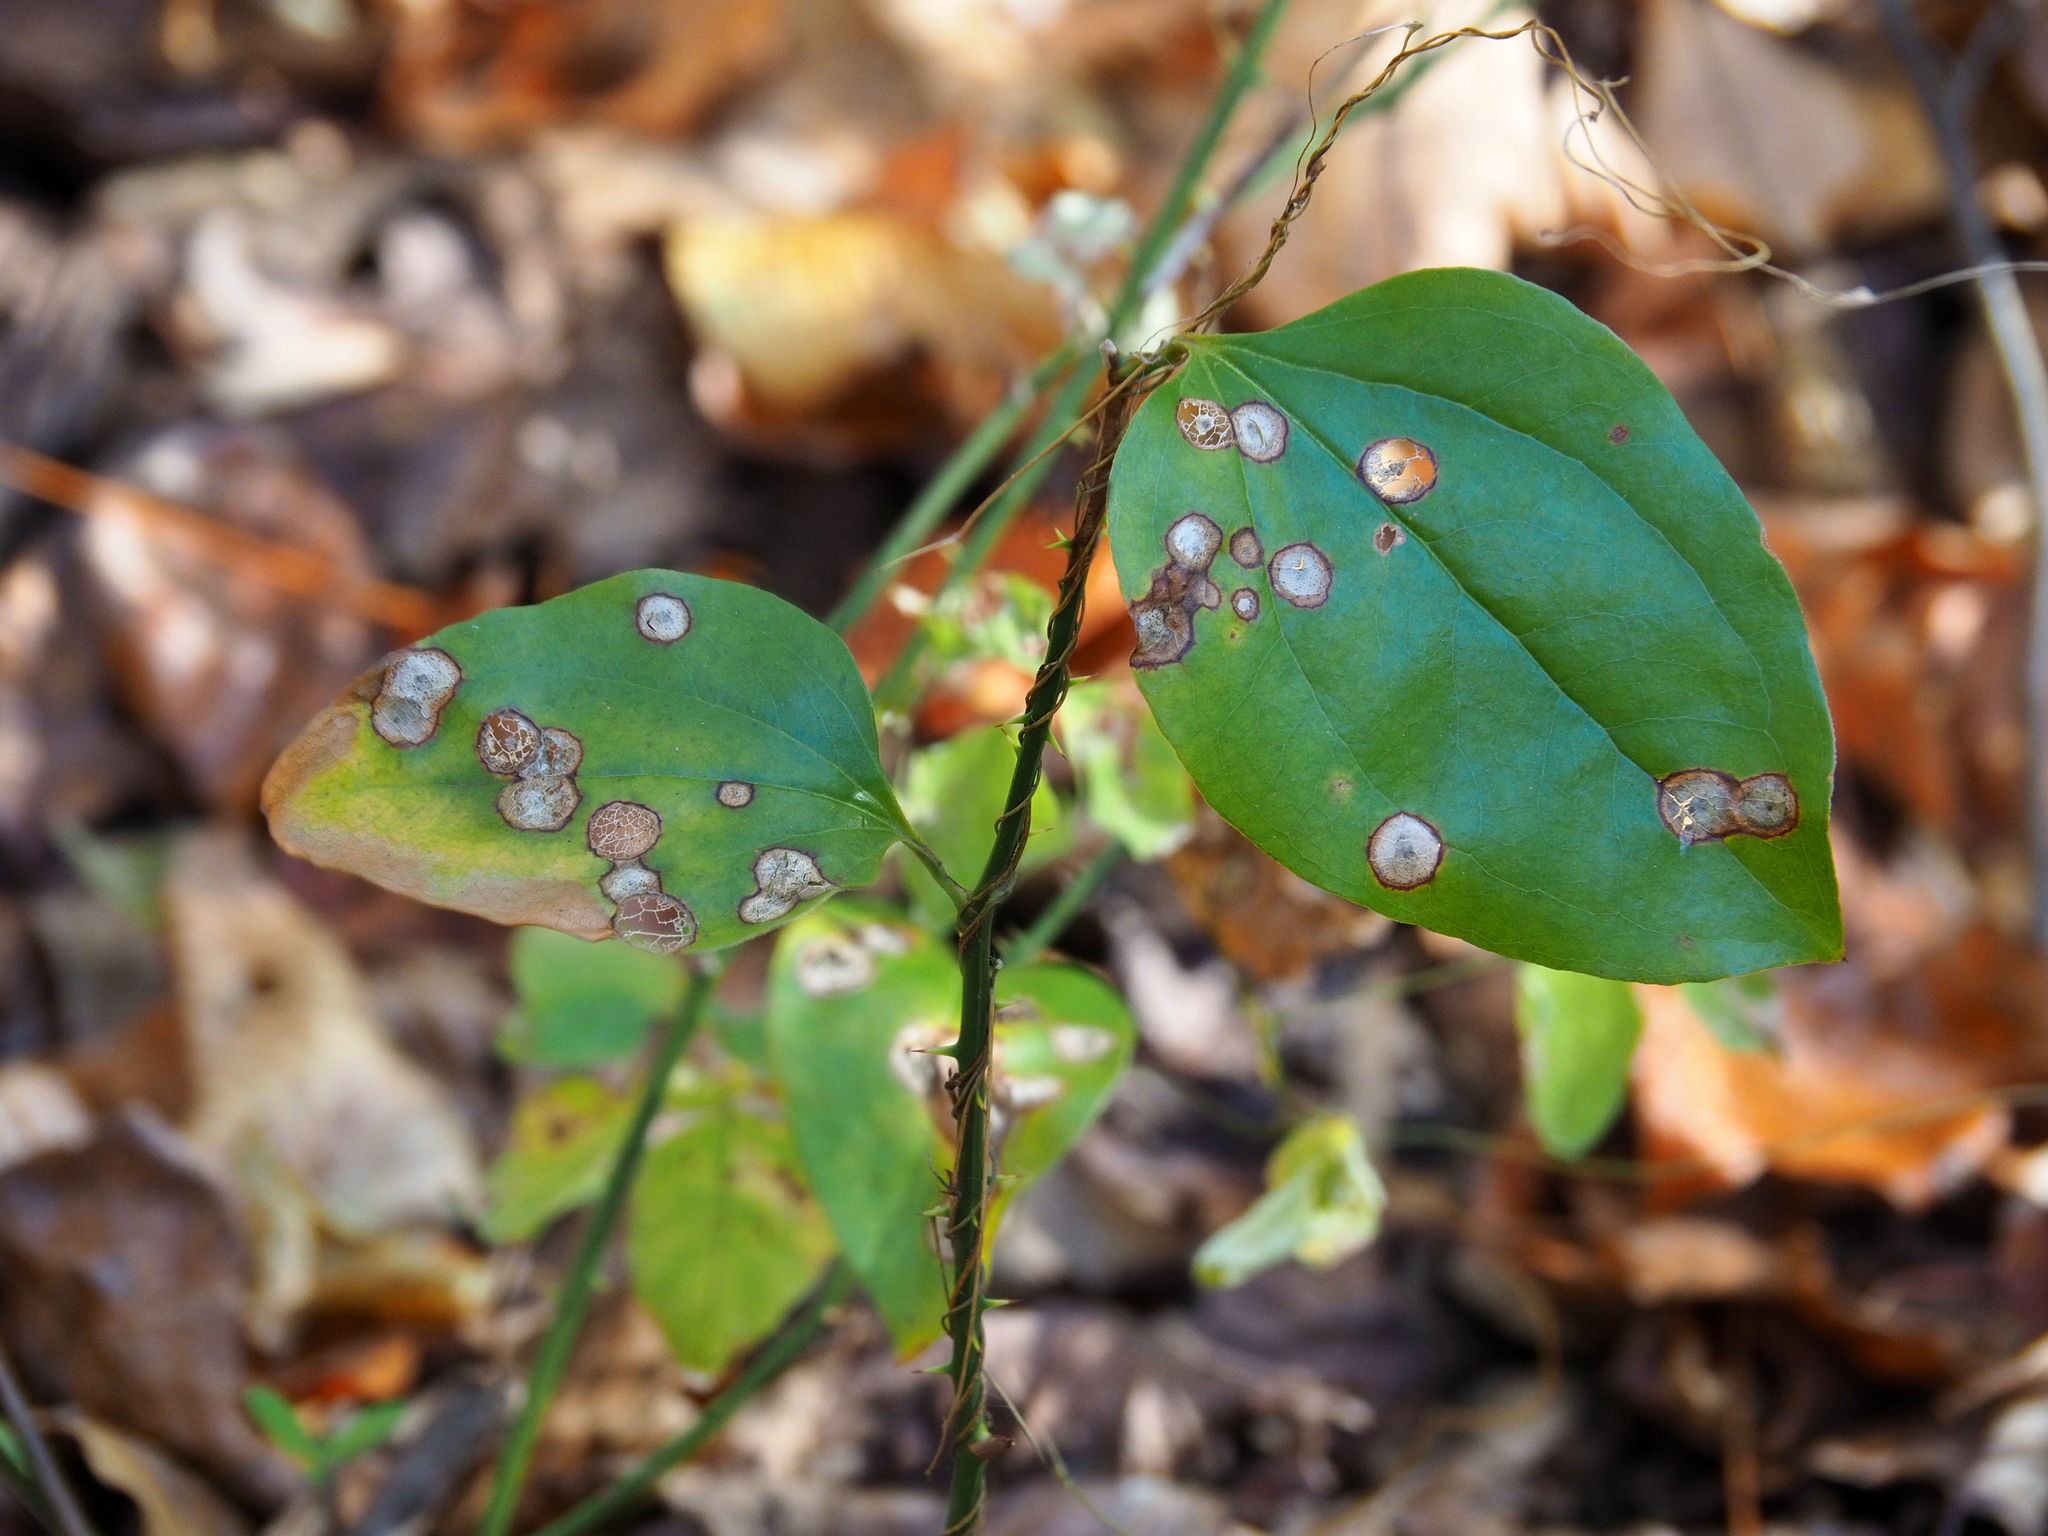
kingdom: Plantae
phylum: Tracheophyta
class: Liliopsida
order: Liliales
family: Smilacaceae
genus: Smilax
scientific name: Smilax rotundifolia
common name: Bullbriar
